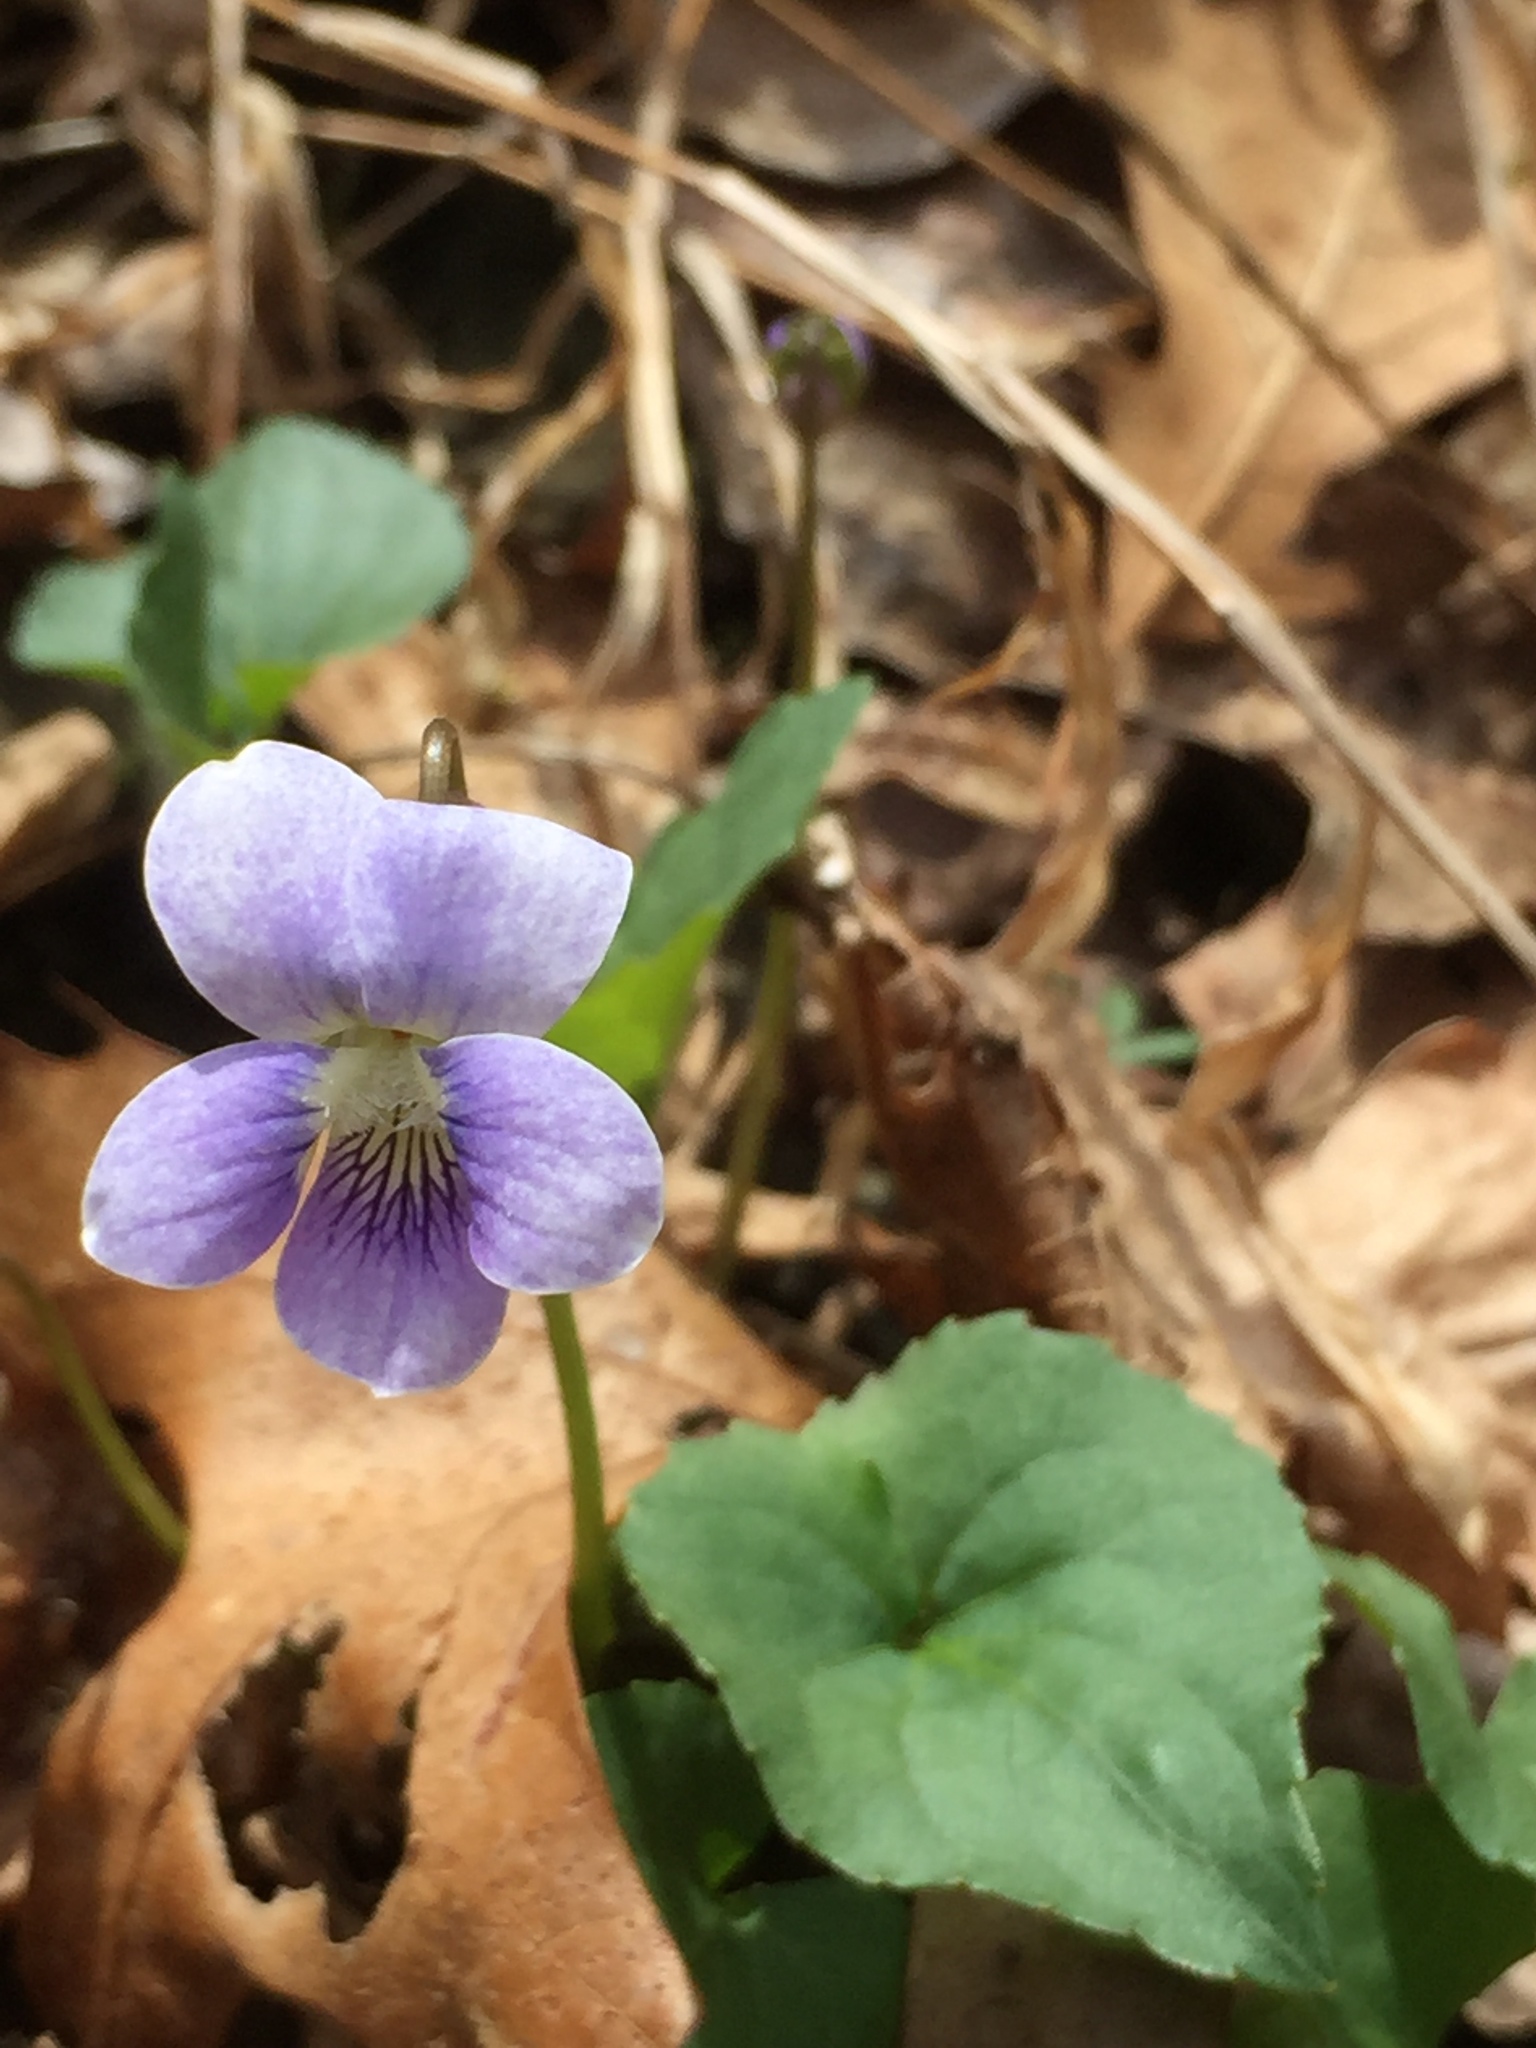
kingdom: Plantae
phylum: Tracheophyta
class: Magnoliopsida
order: Malpighiales
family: Violaceae
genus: Viola
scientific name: Viola sororia
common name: Dooryard violet
